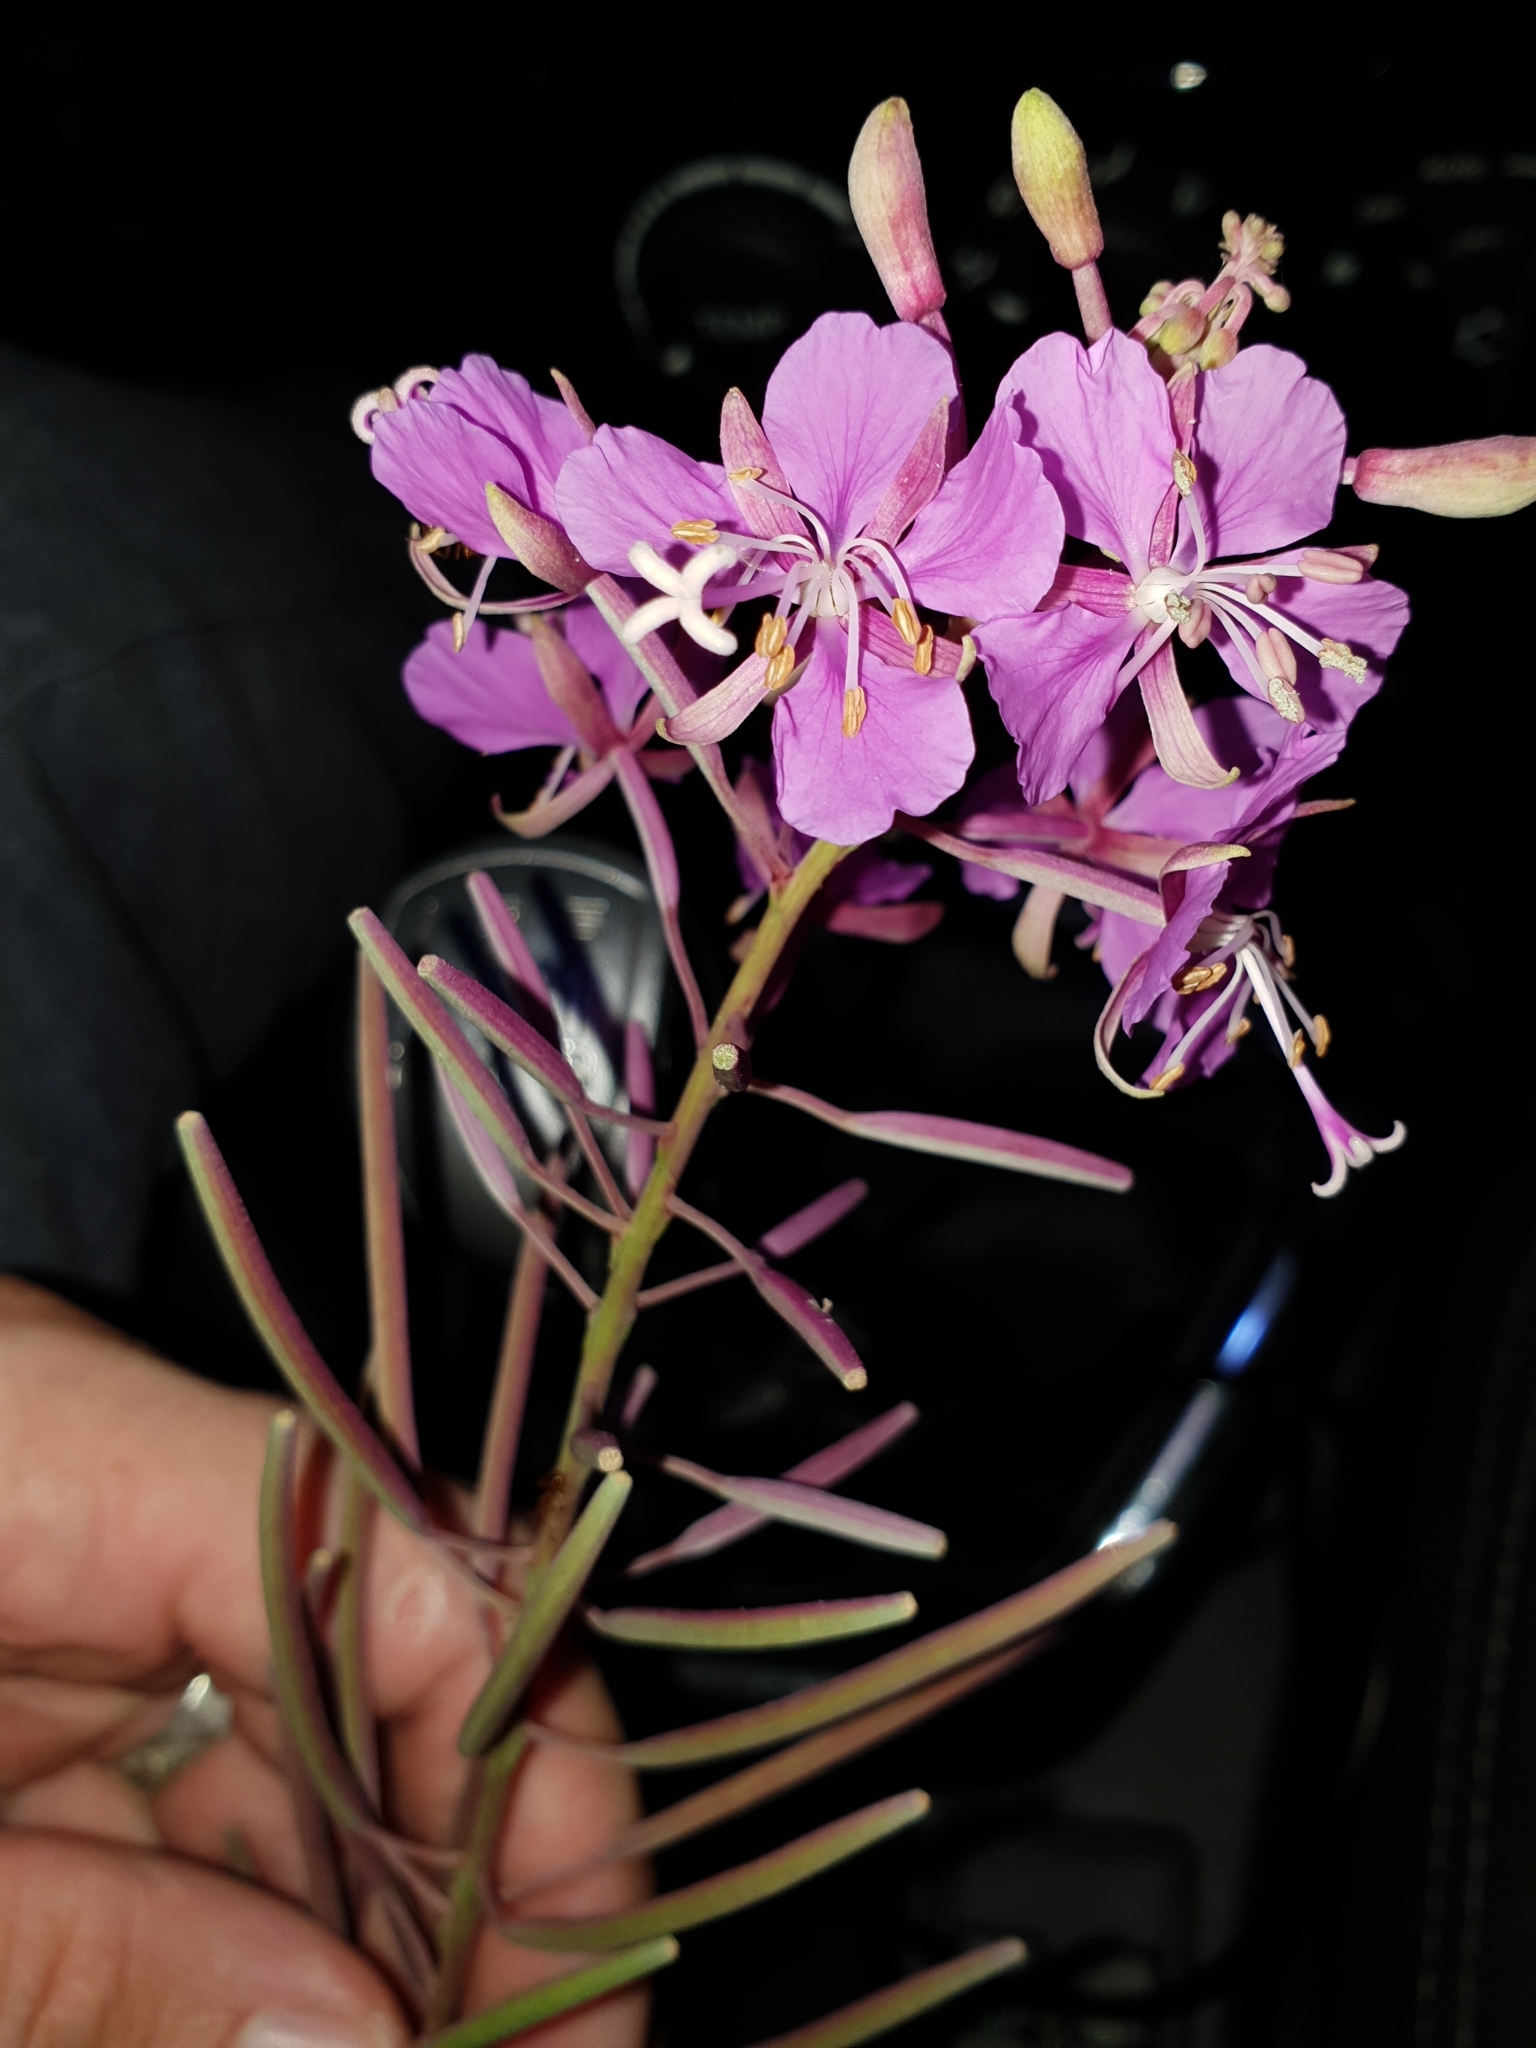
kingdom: Plantae
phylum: Tracheophyta
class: Magnoliopsida
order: Myrtales
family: Onagraceae
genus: Chamaenerion
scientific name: Chamaenerion angustifolium
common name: Fireweed
